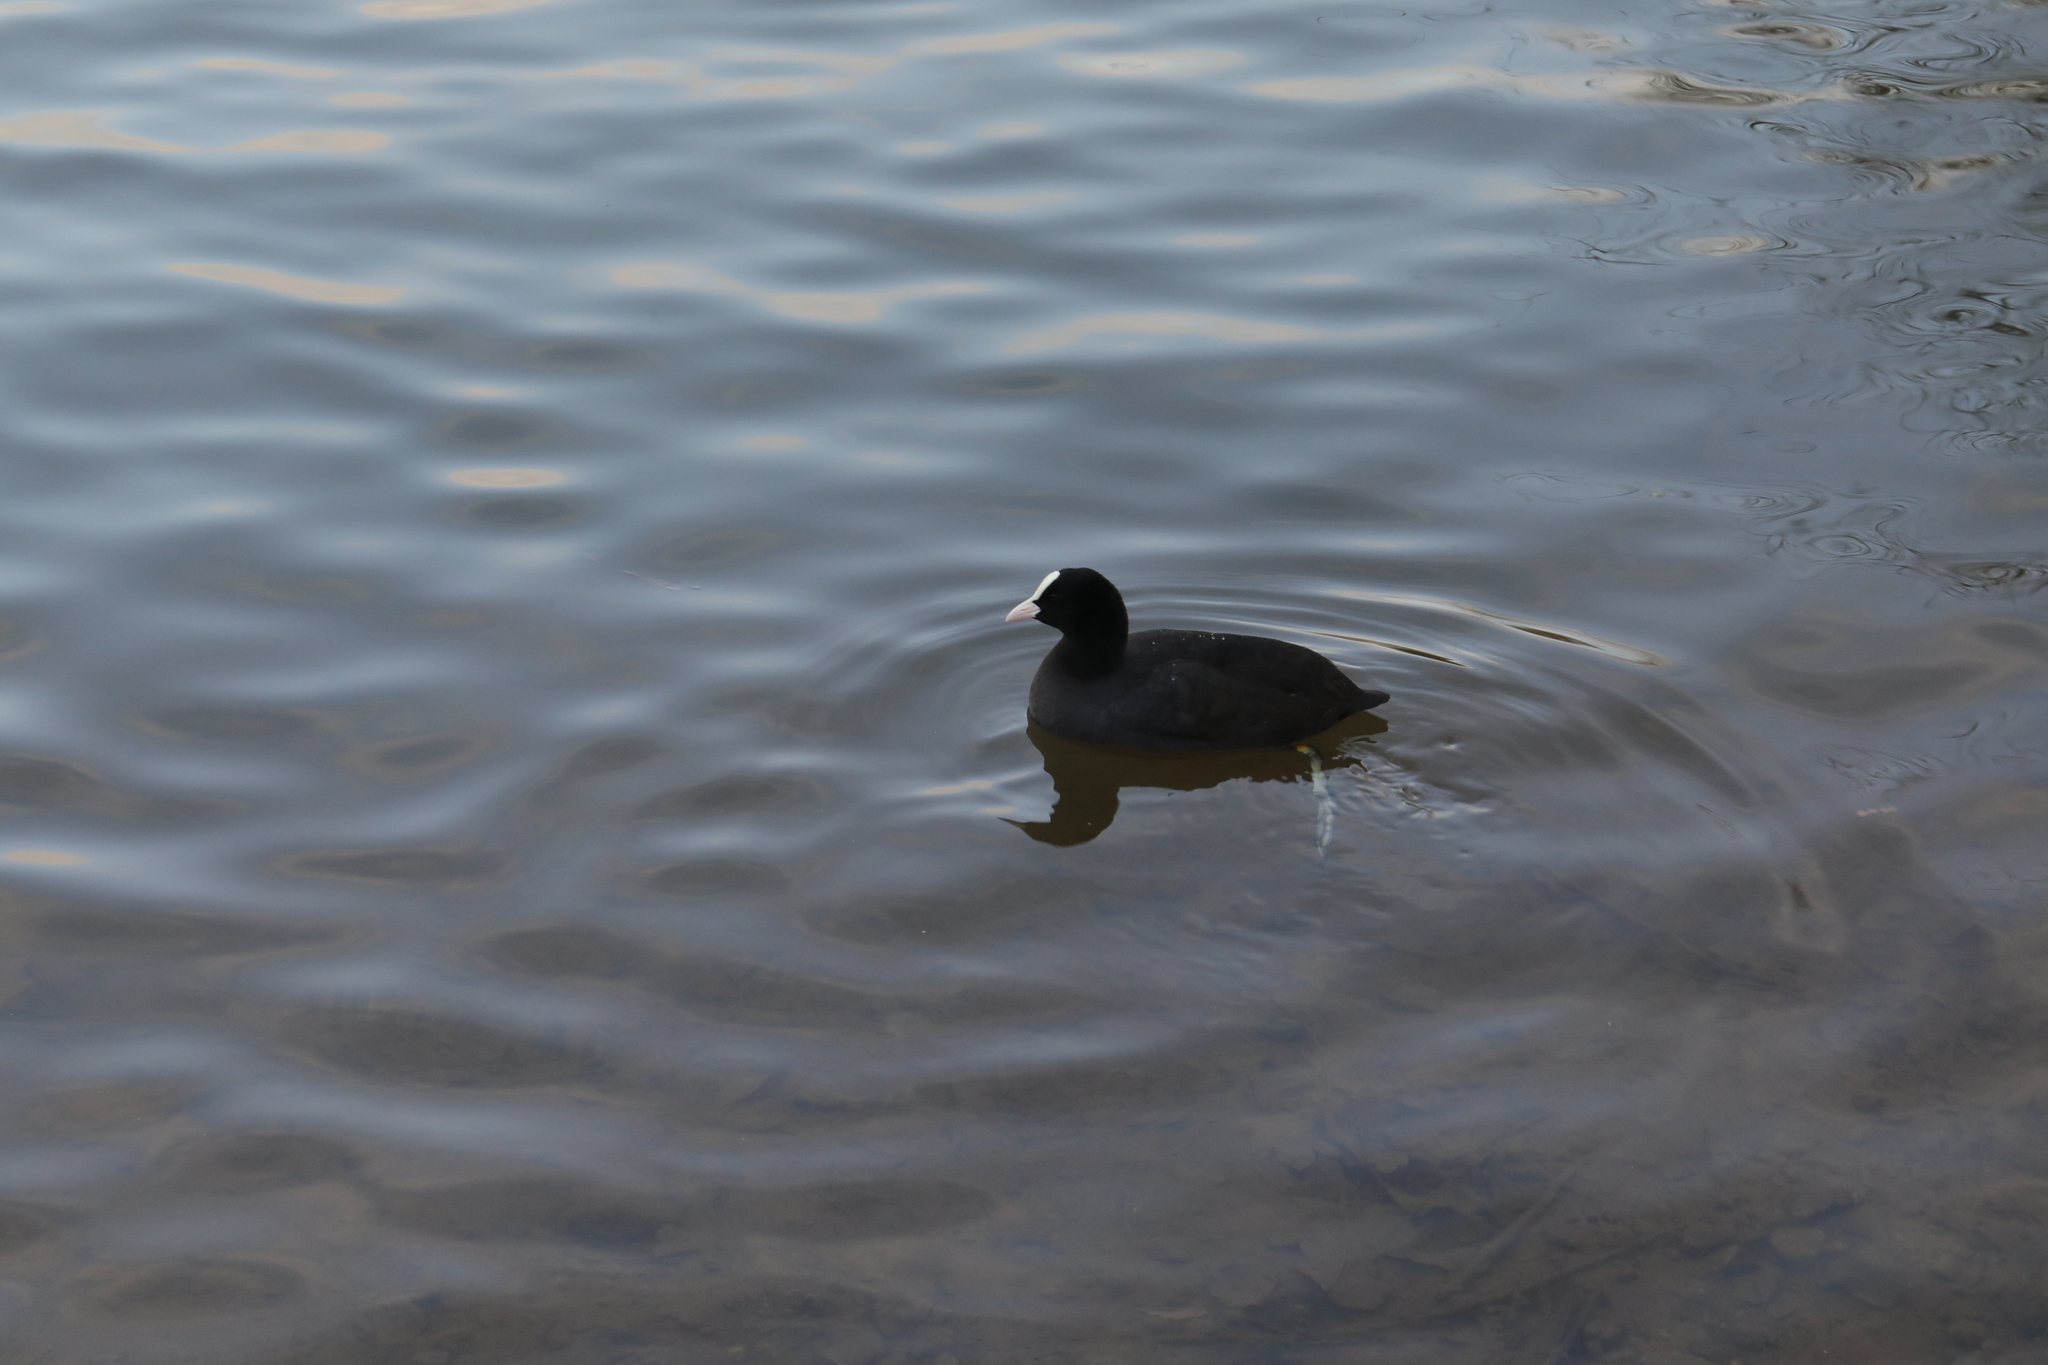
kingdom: Animalia
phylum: Chordata
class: Aves
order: Gruiformes
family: Rallidae
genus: Fulica
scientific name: Fulica atra
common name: Eurasian coot
